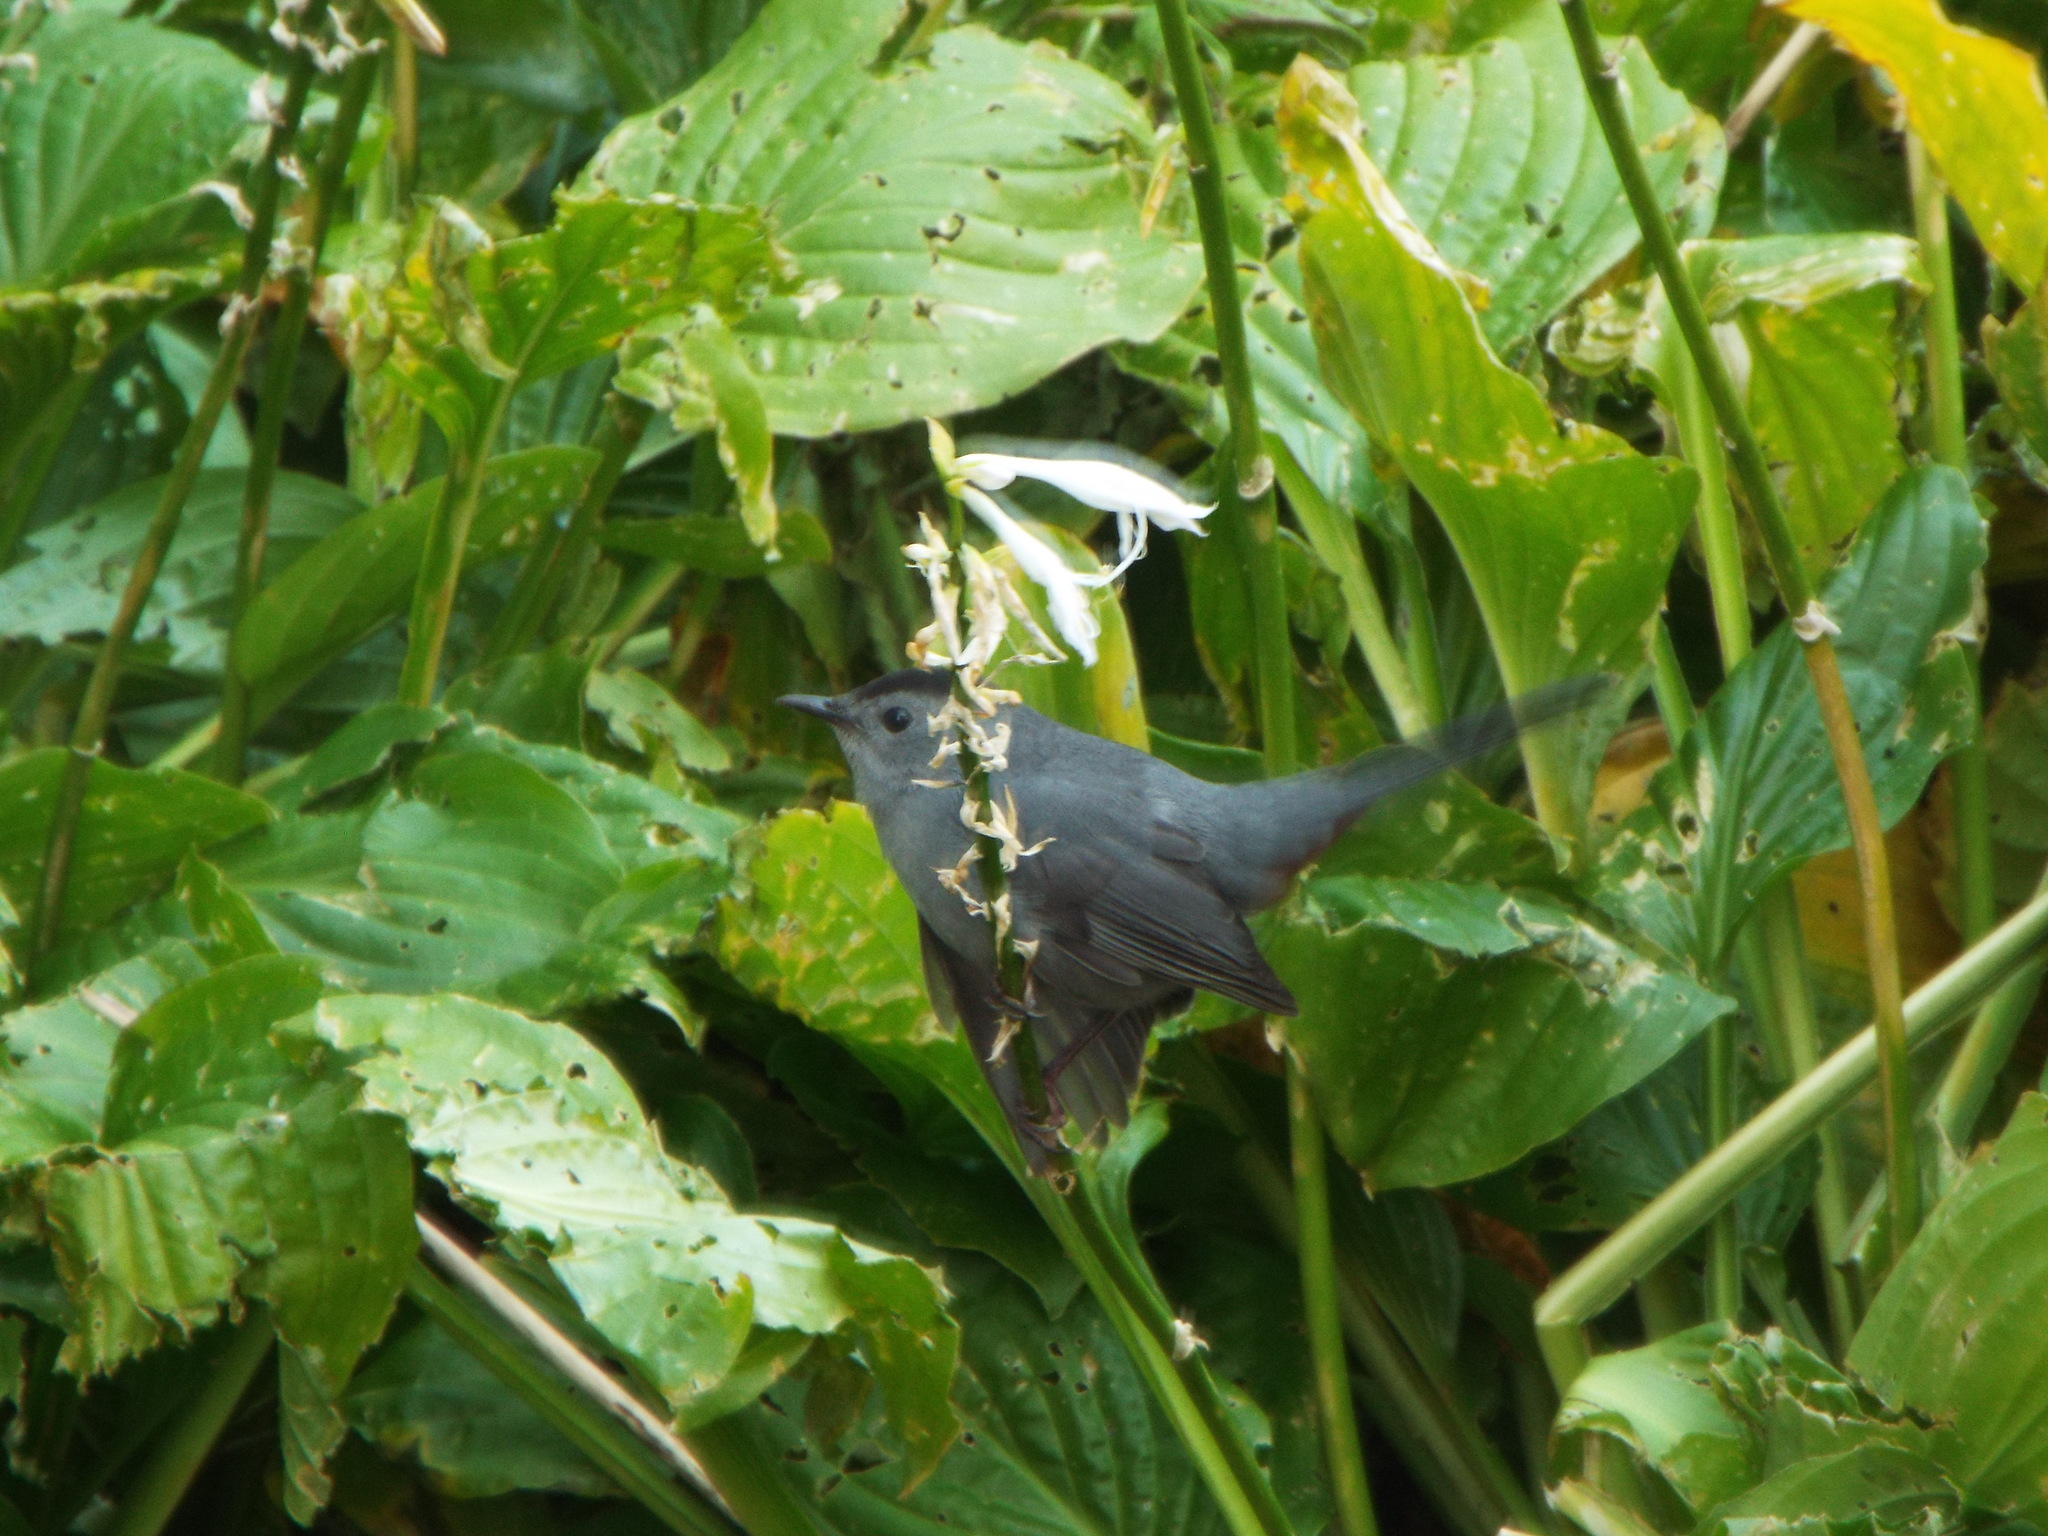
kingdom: Animalia
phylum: Chordata
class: Aves
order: Passeriformes
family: Mimidae
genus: Dumetella
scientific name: Dumetella carolinensis
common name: Gray catbird
